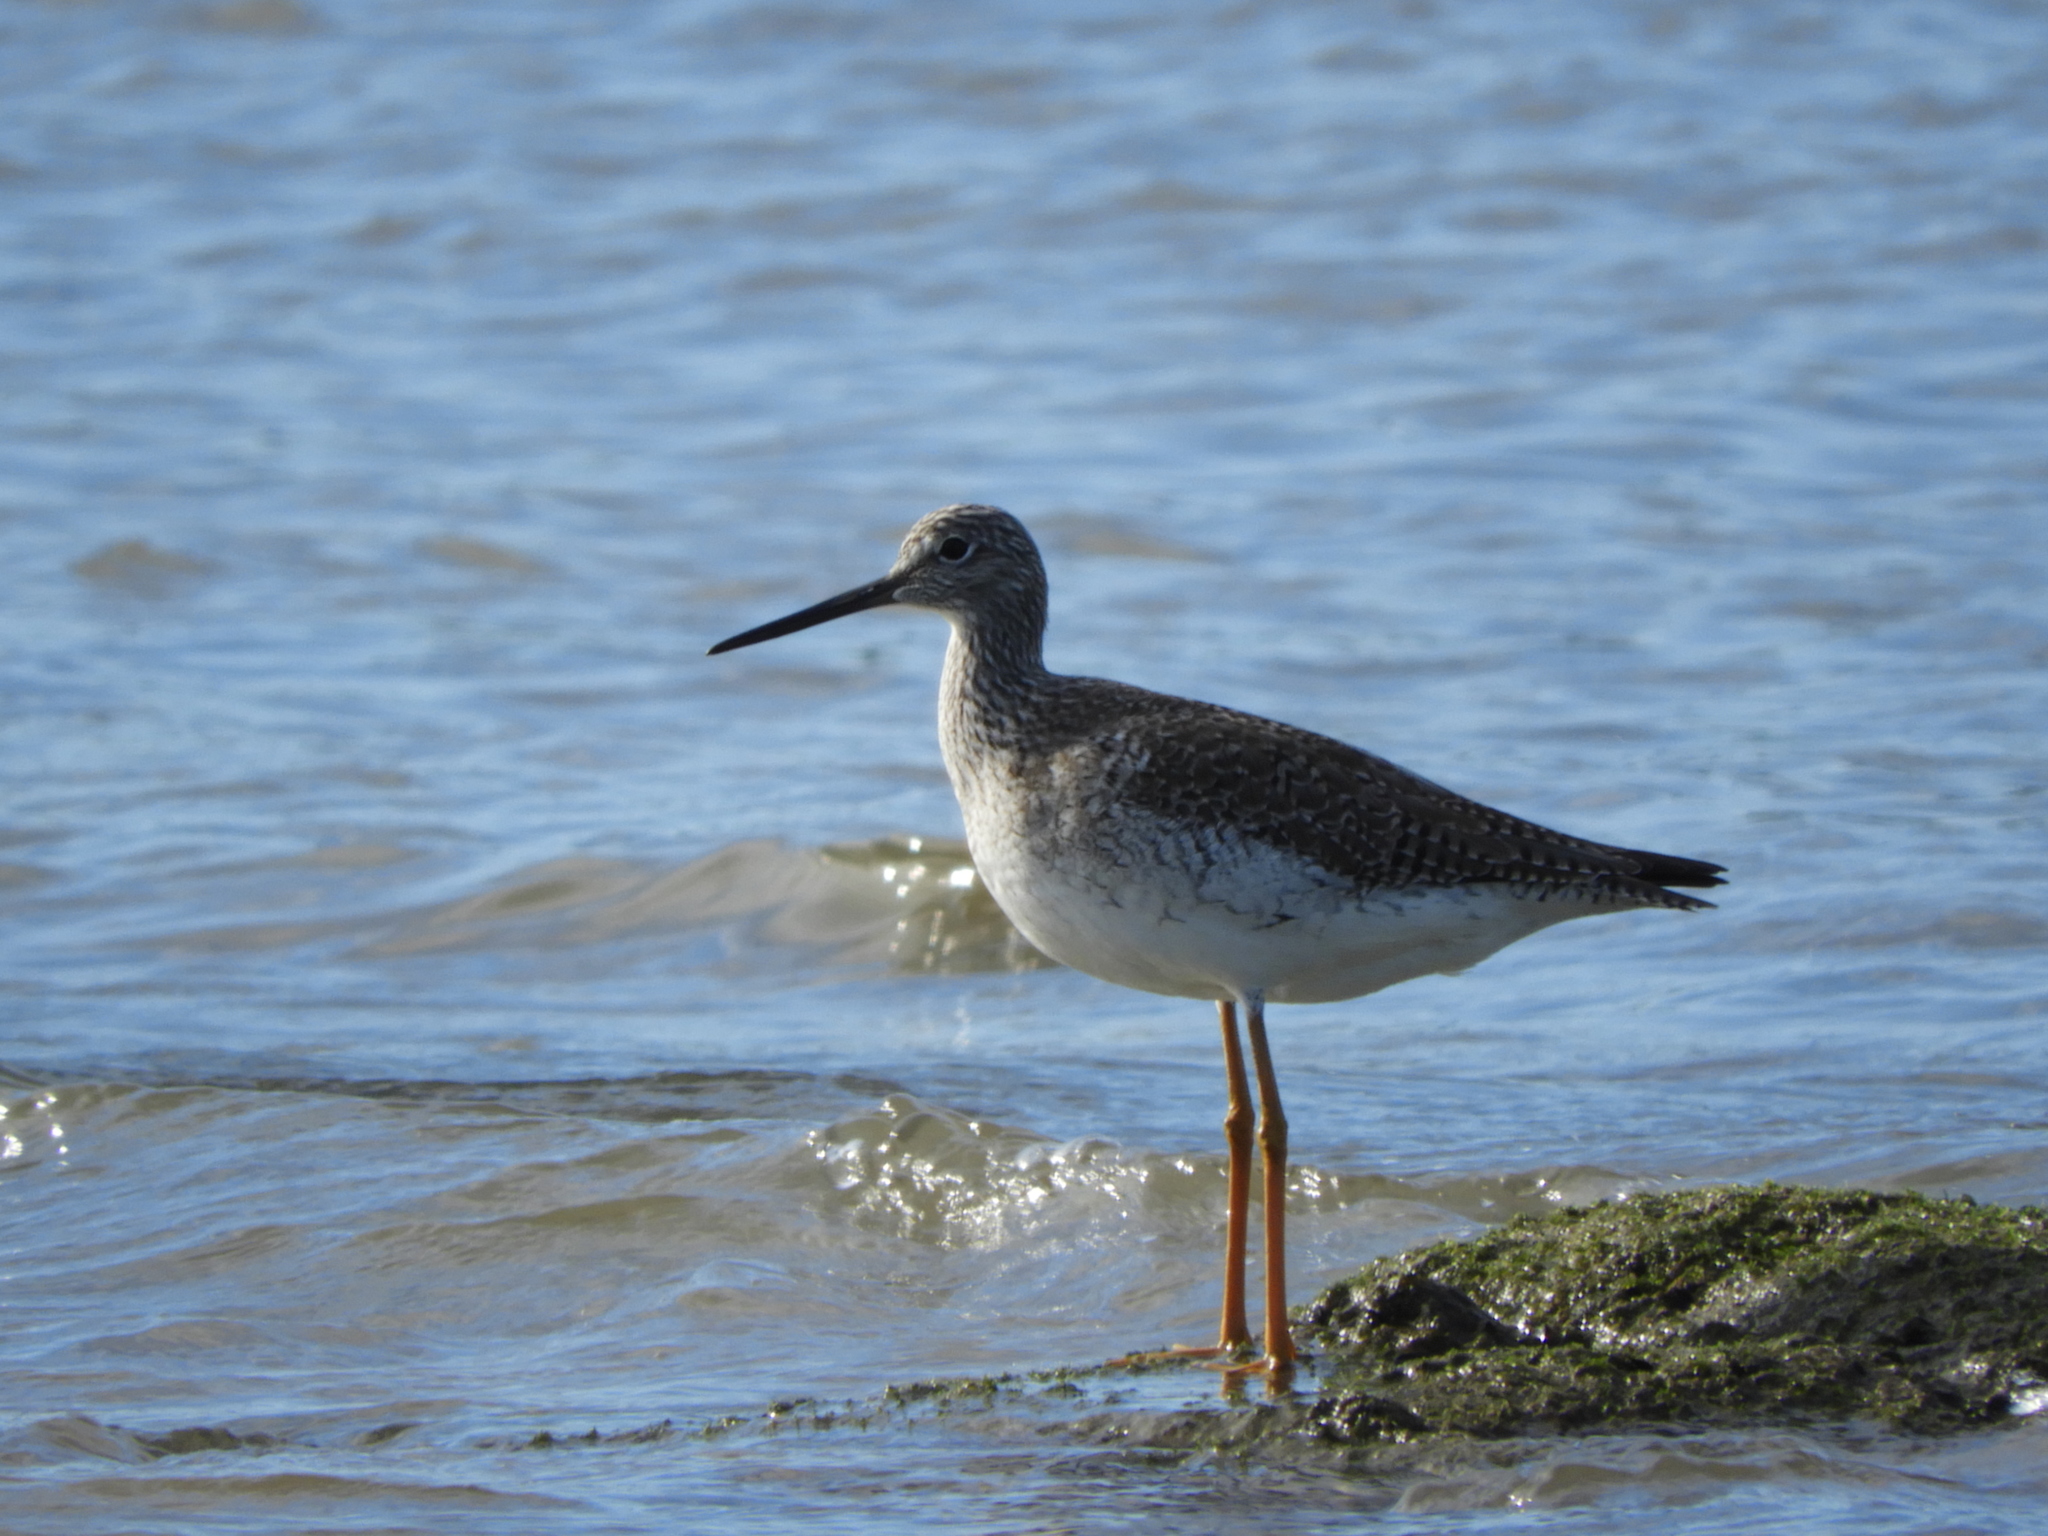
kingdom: Animalia
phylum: Chordata
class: Aves
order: Charadriiformes
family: Scolopacidae
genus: Tringa
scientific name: Tringa melanoleuca
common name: Greater yellowlegs
